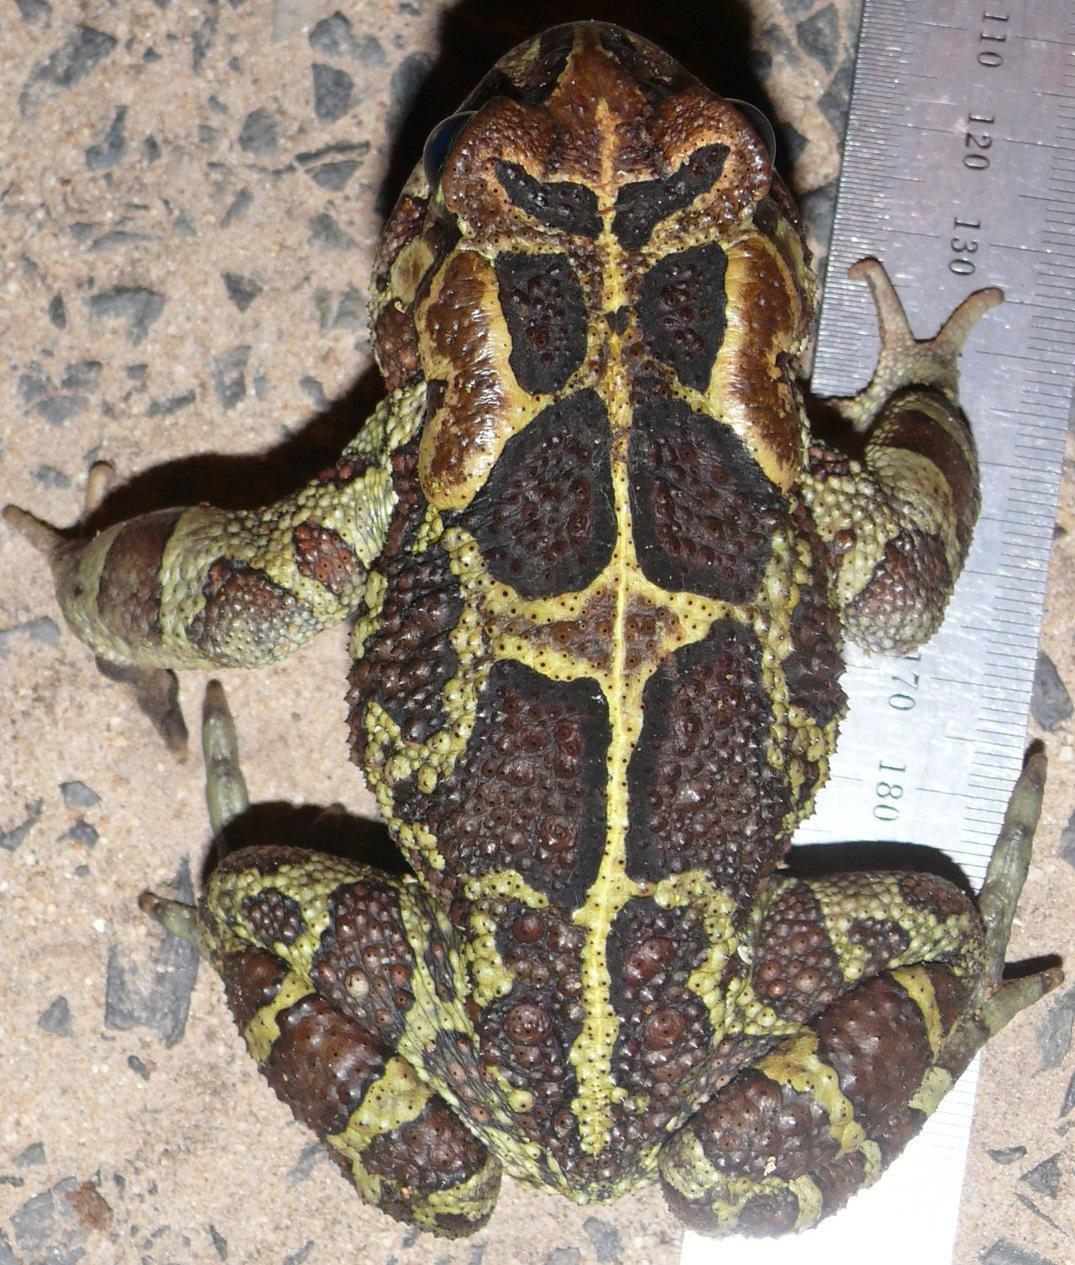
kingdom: Animalia
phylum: Chordata
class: Amphibia
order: Anura
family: Bufonidae
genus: Sclerophrys
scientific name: Sclerophrys pantherina
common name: Panther toad
